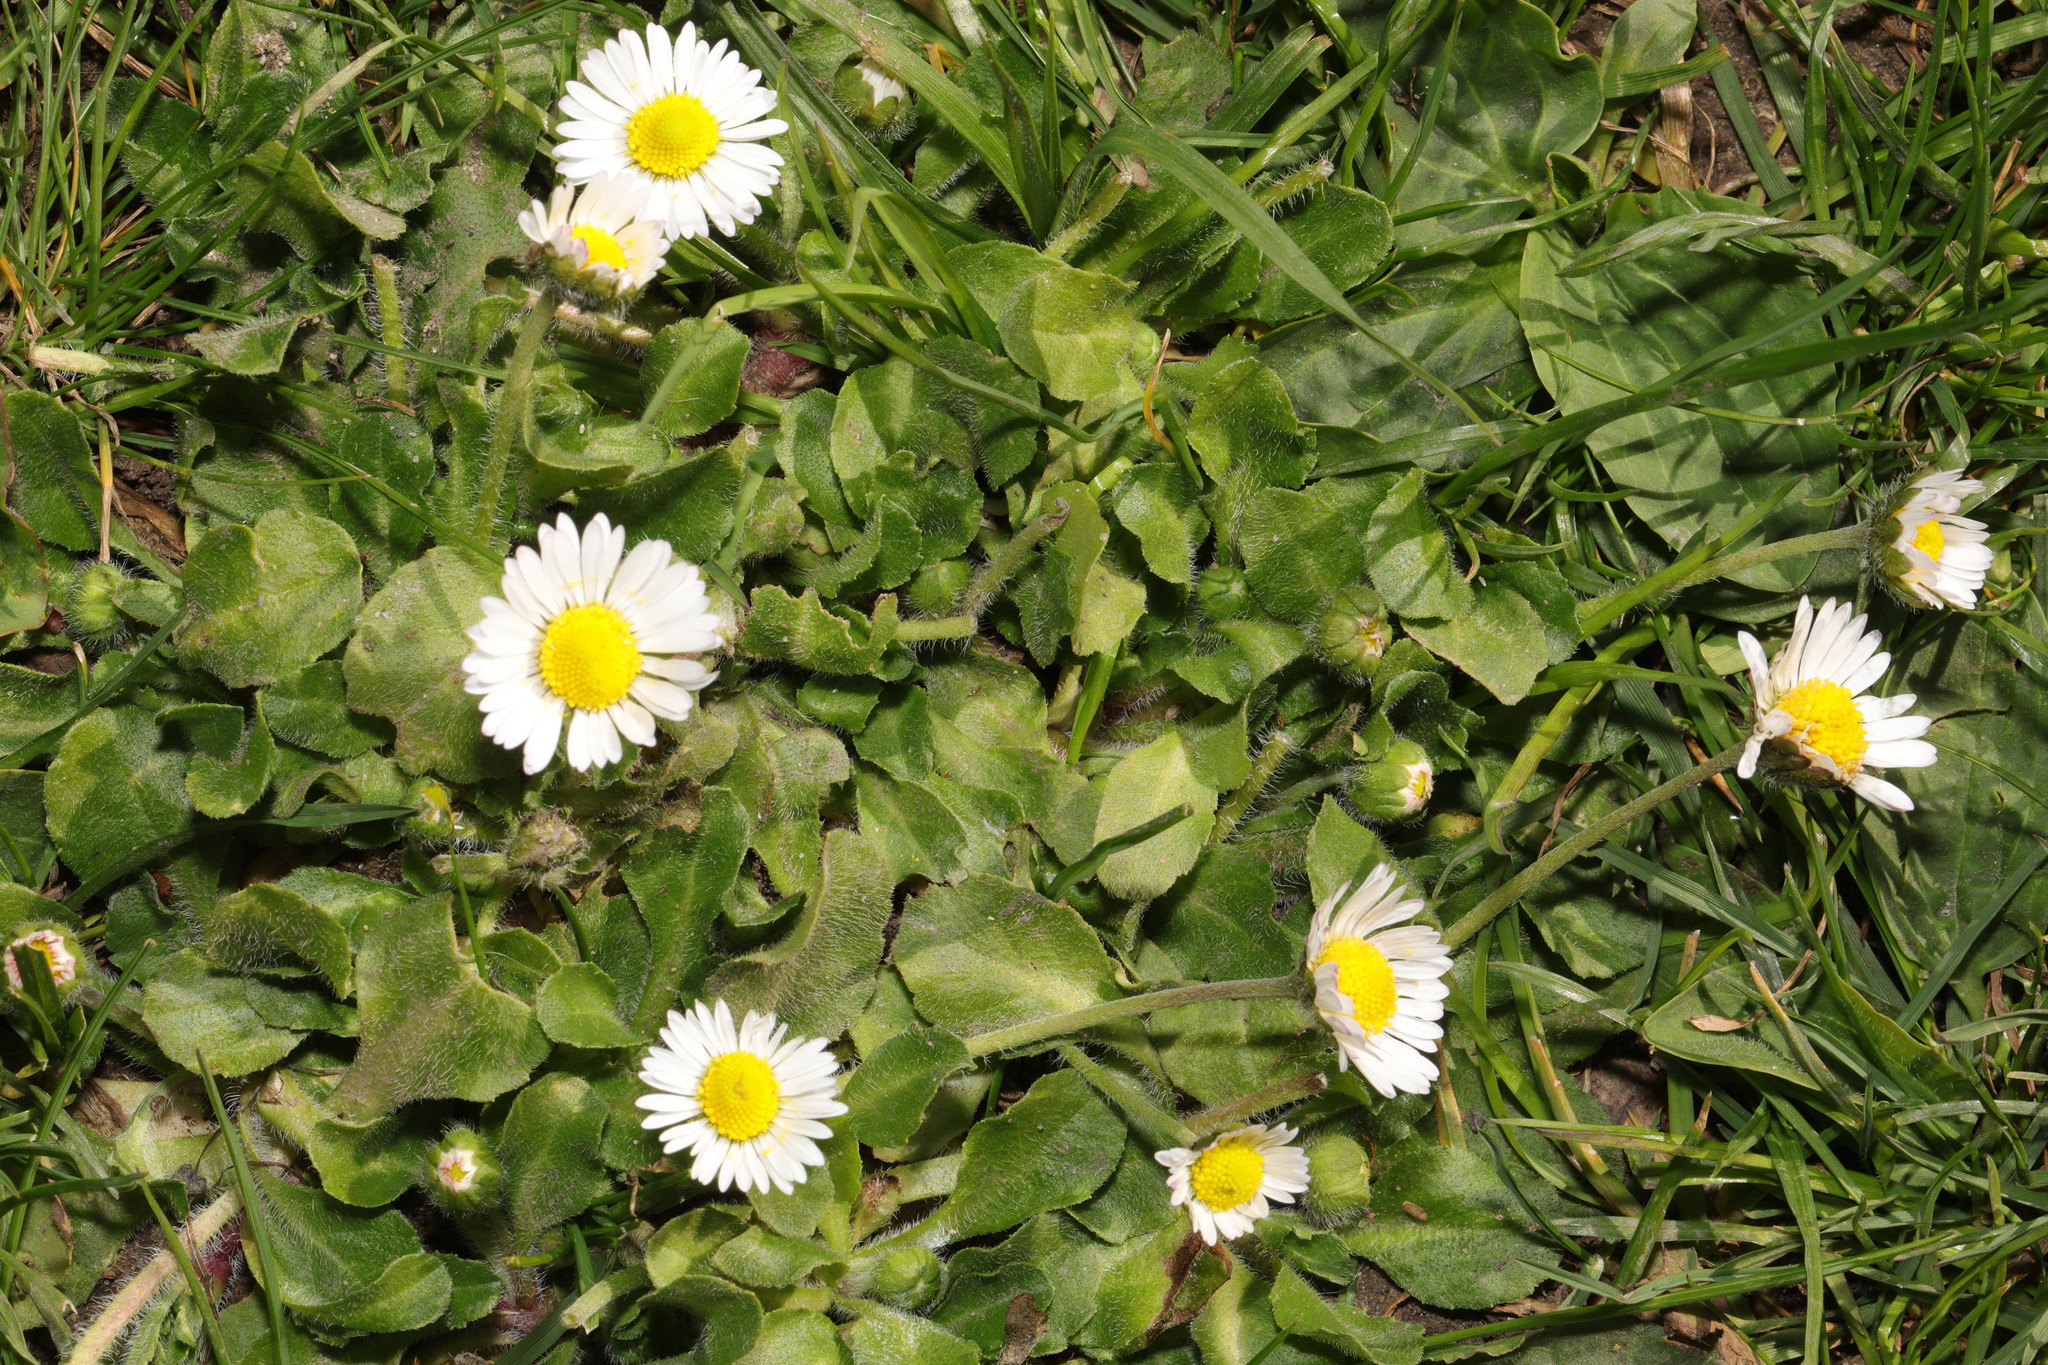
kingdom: Plantae
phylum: Tracheophyta
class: Magnoliopsida
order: Asterales
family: Asteraceae
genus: Bellis
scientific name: Bellis perennis
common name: Lawndaisy
